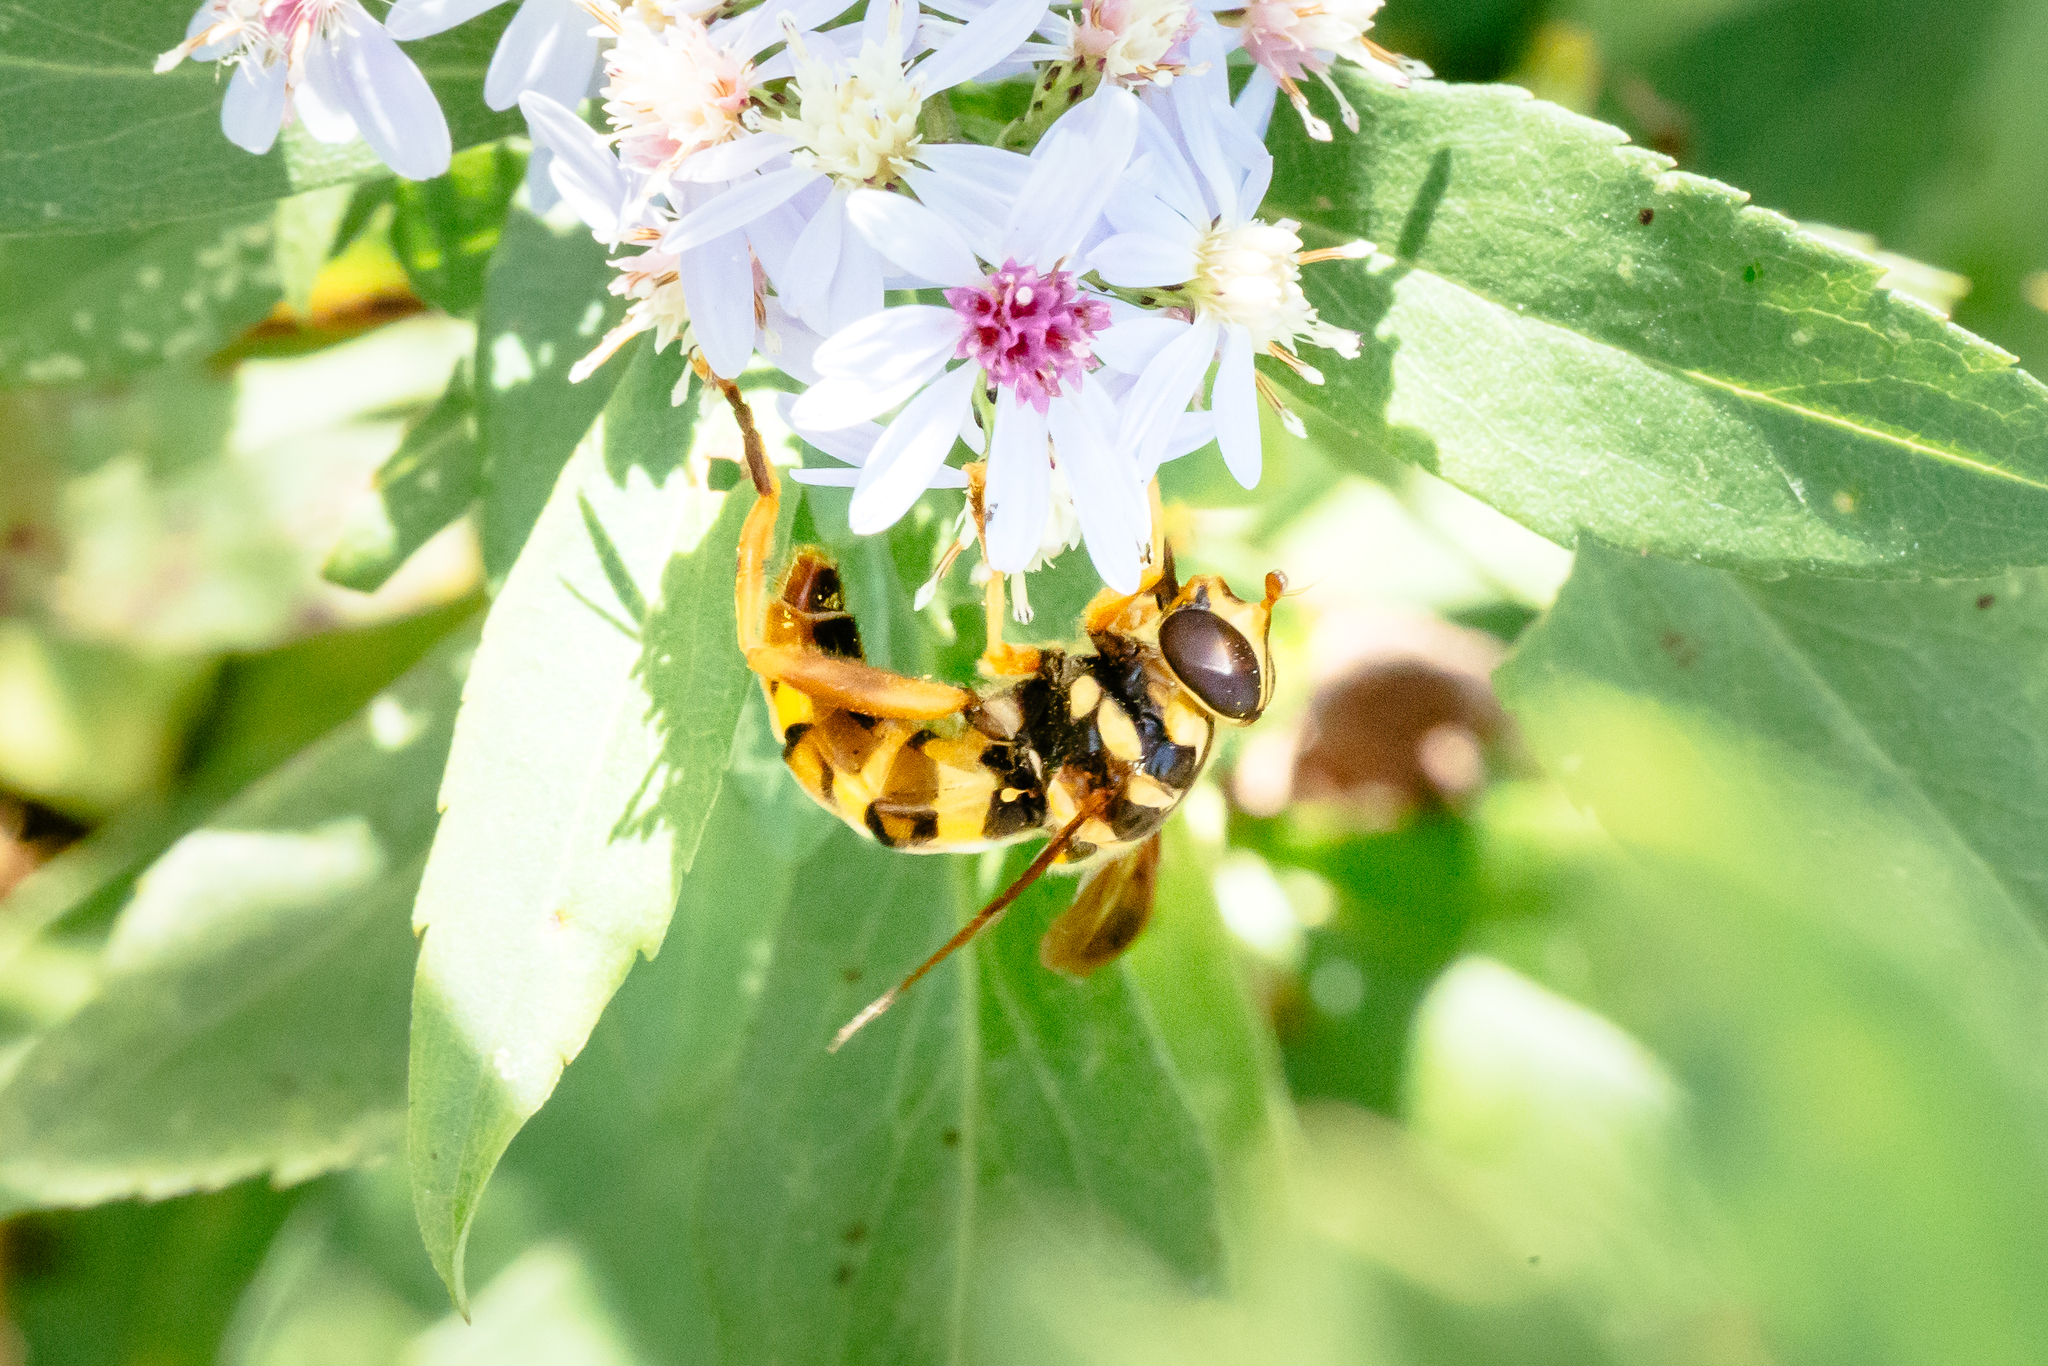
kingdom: Animalia
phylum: Arthropoda
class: Insecta
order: Diptera
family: Syrphidae
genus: Milesia
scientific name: Milesia virginiensis
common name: Virginia giant
